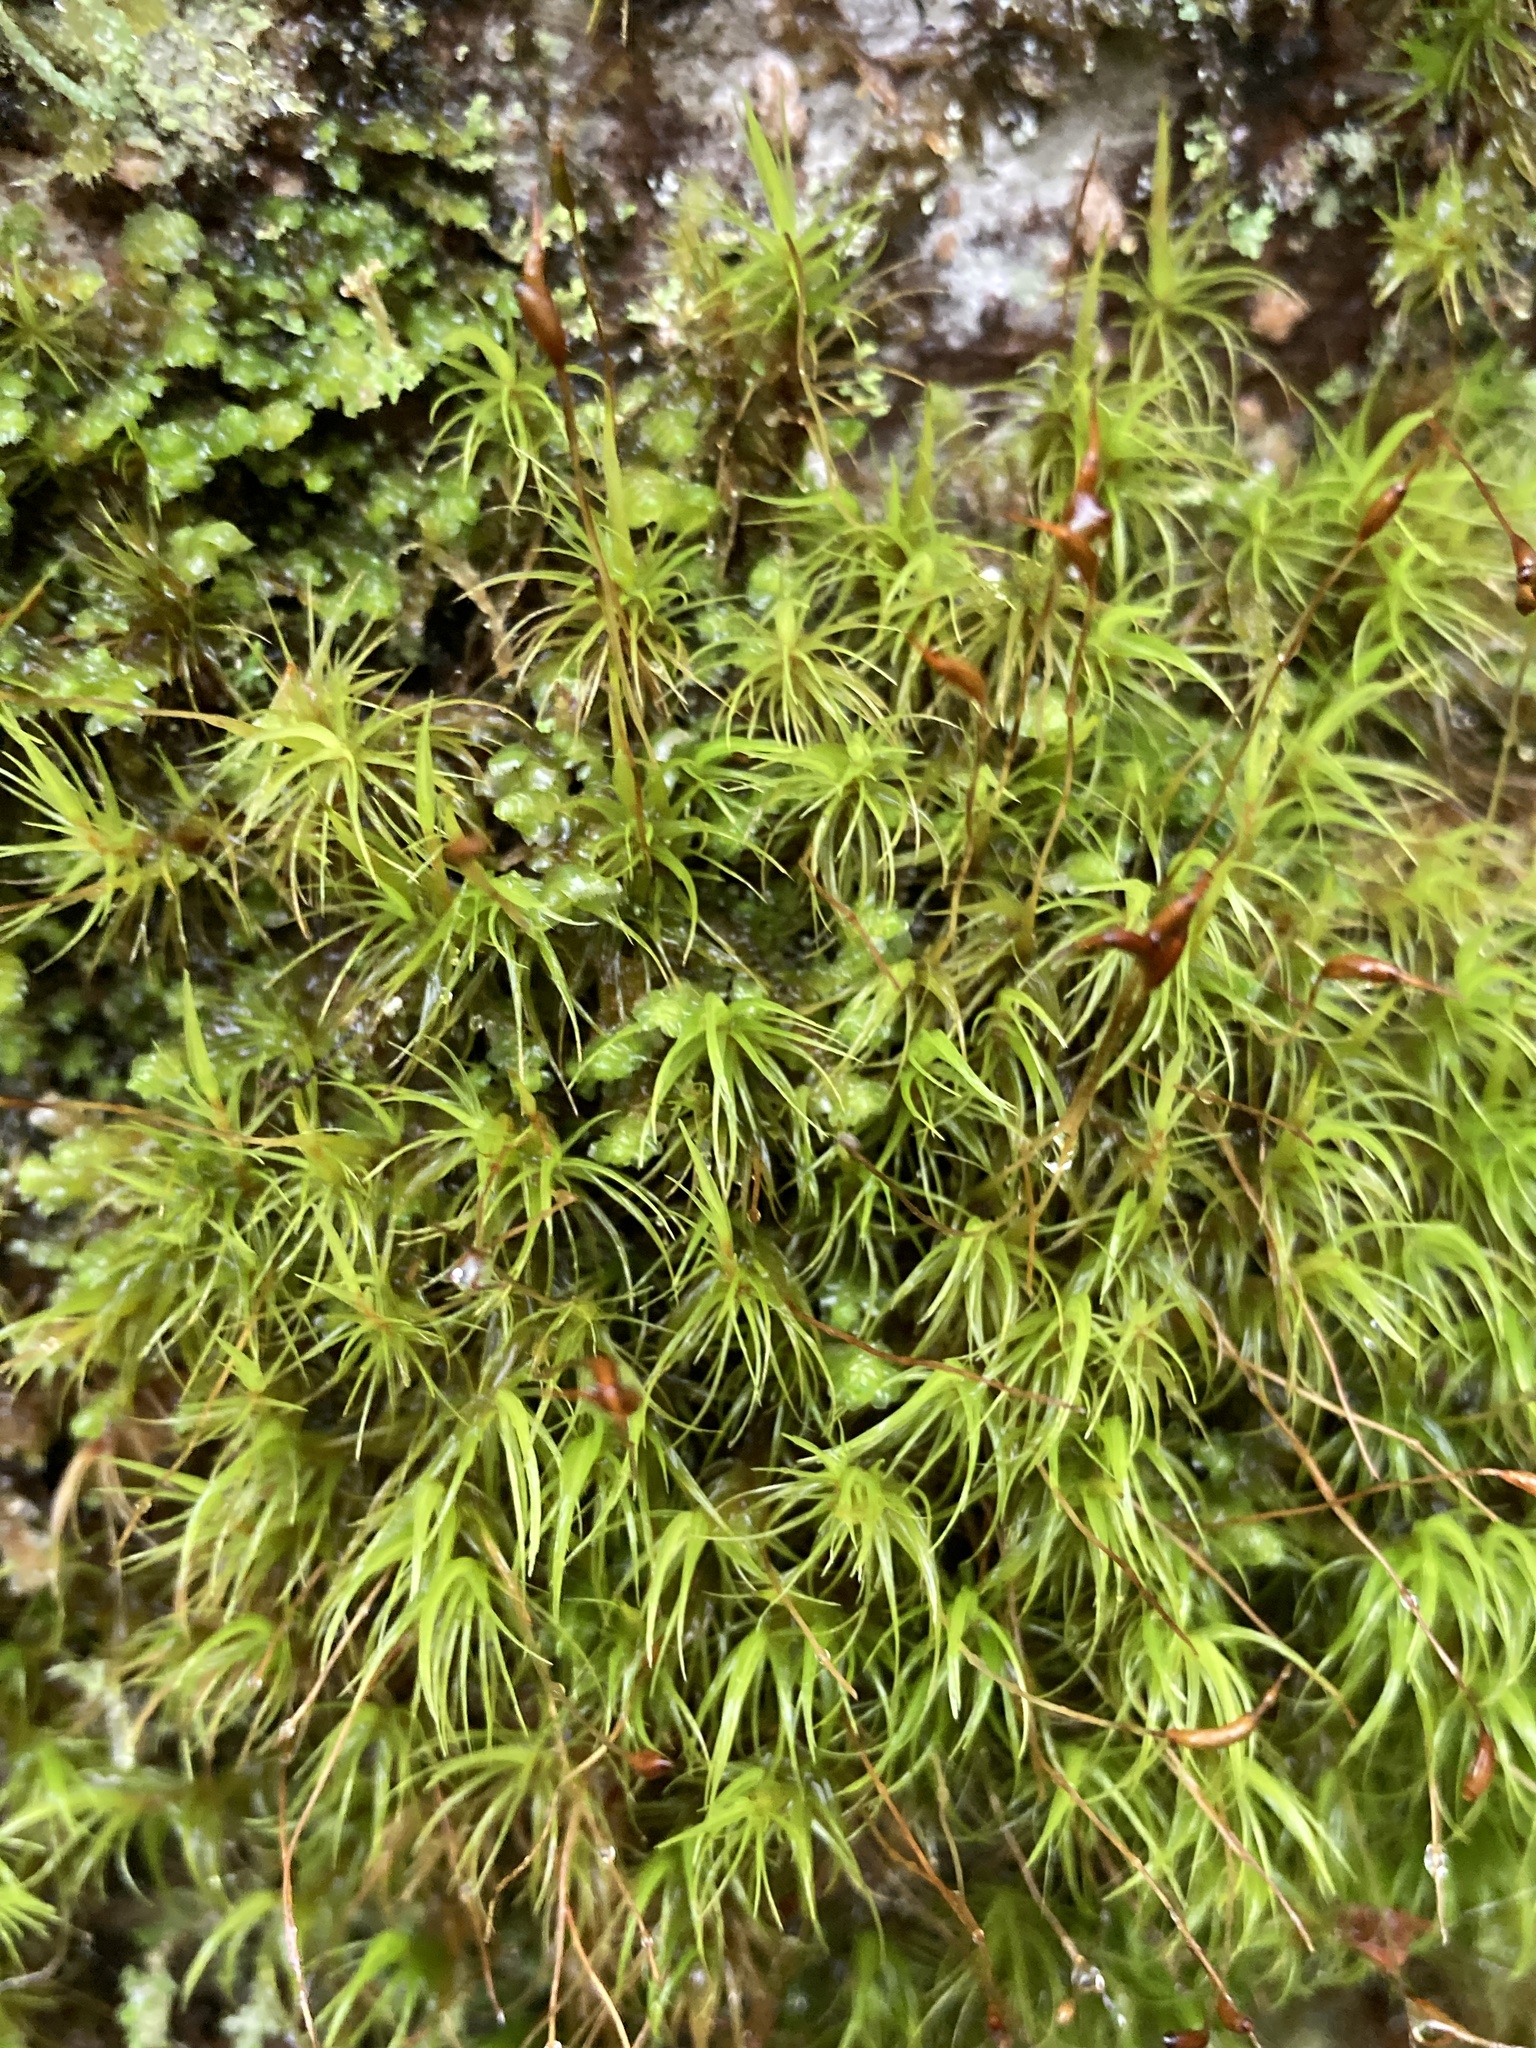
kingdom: Plantae
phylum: Bryophyta
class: Bryopsida
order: Dicranales
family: Dicranaceae
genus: Dicranum
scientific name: Dicranum scoparium
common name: Broom fork-moss
